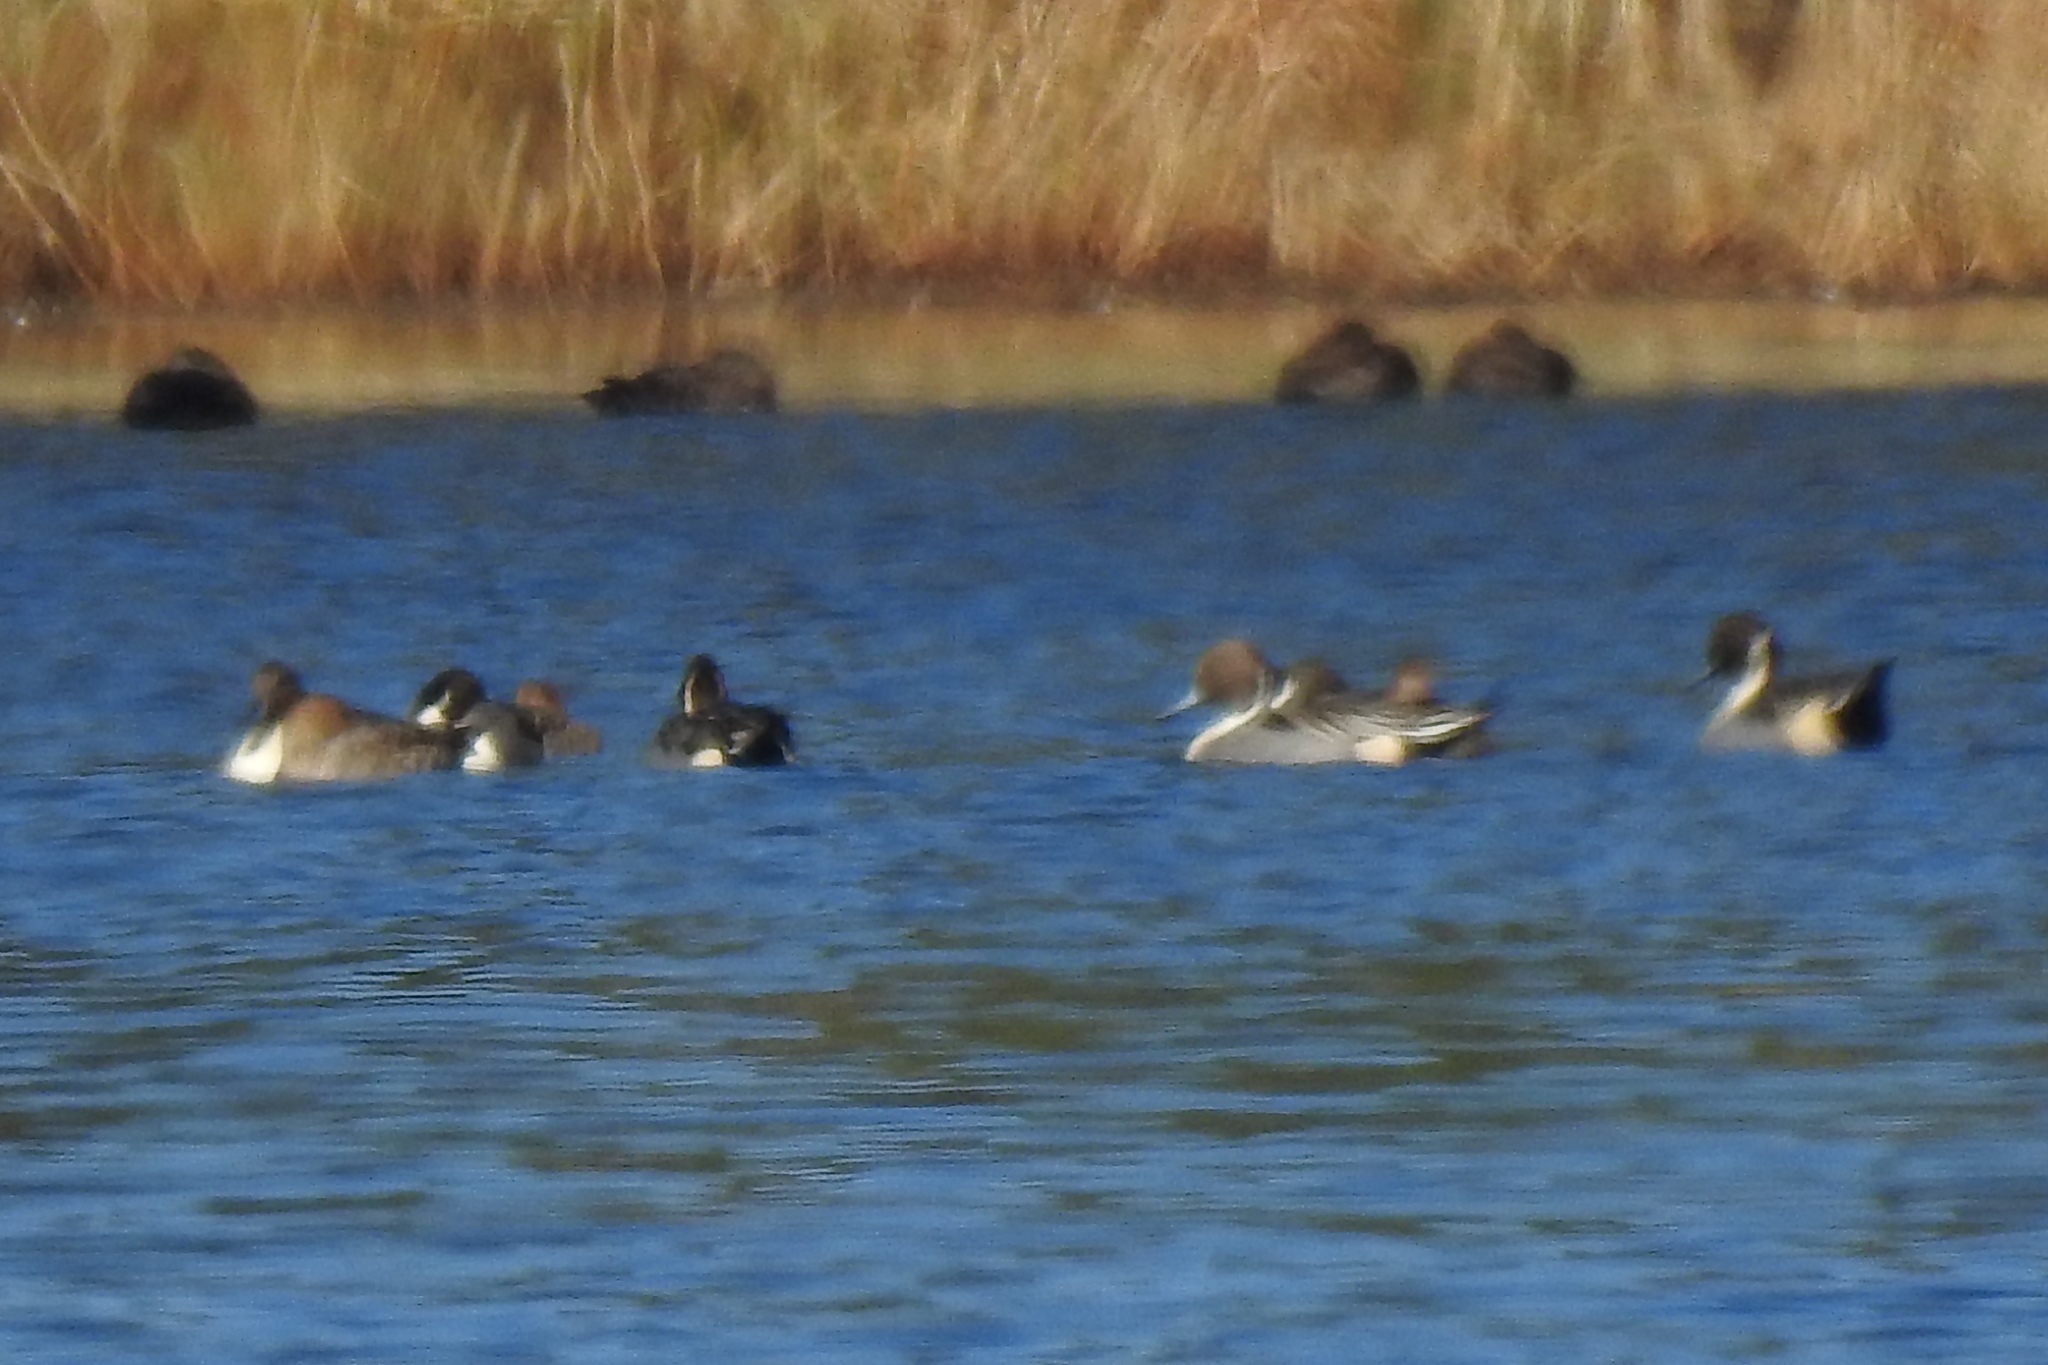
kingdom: Animalia
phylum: Chordata
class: Aves
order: Anseriformes
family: Anatidae
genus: Anas
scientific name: Anas acuta
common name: Northern pintail
